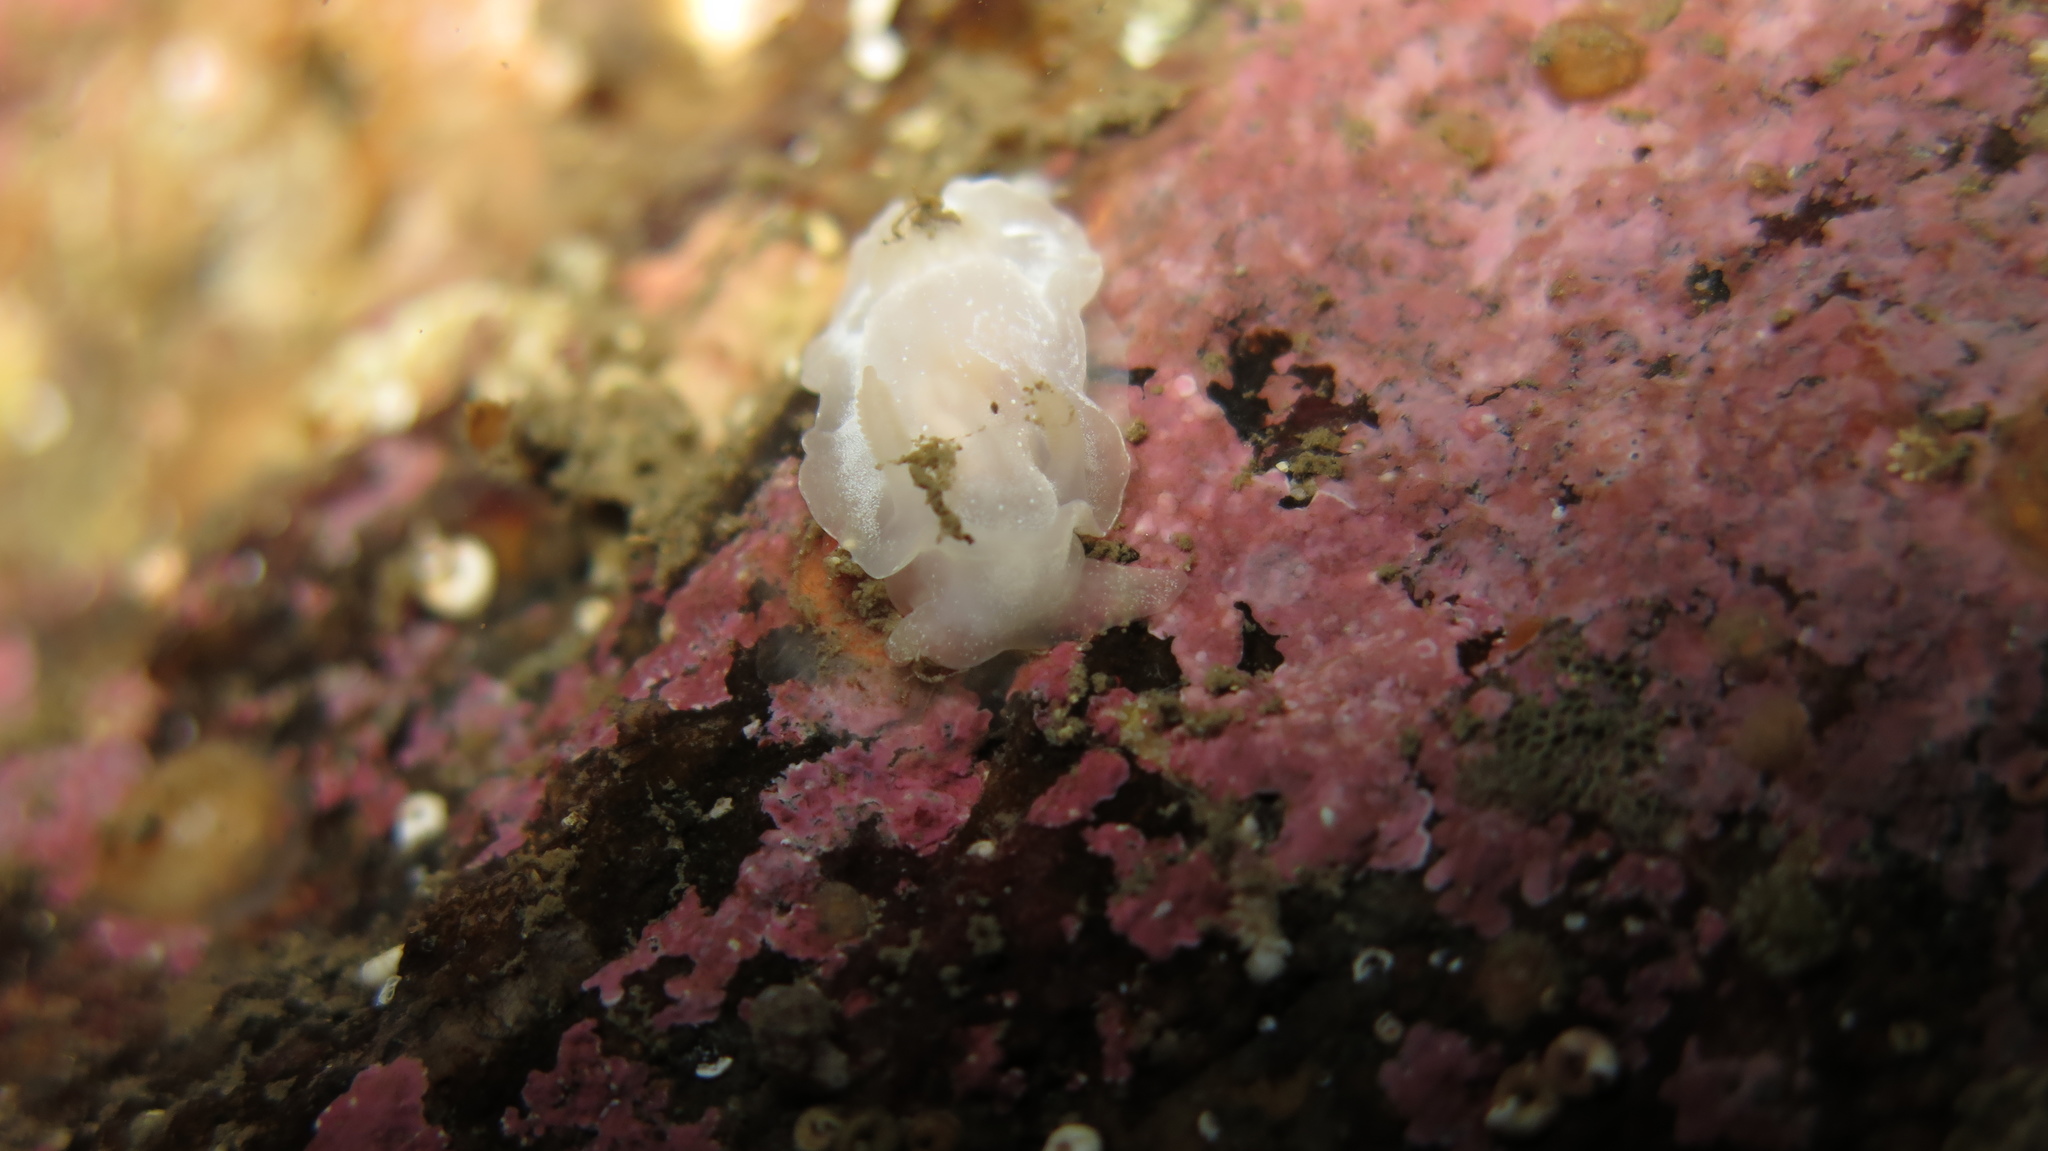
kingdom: Animalia
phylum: Mollusca
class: Gastropoda
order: Nudibranchia
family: Goniodorididae
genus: Okenia
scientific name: Okenia
